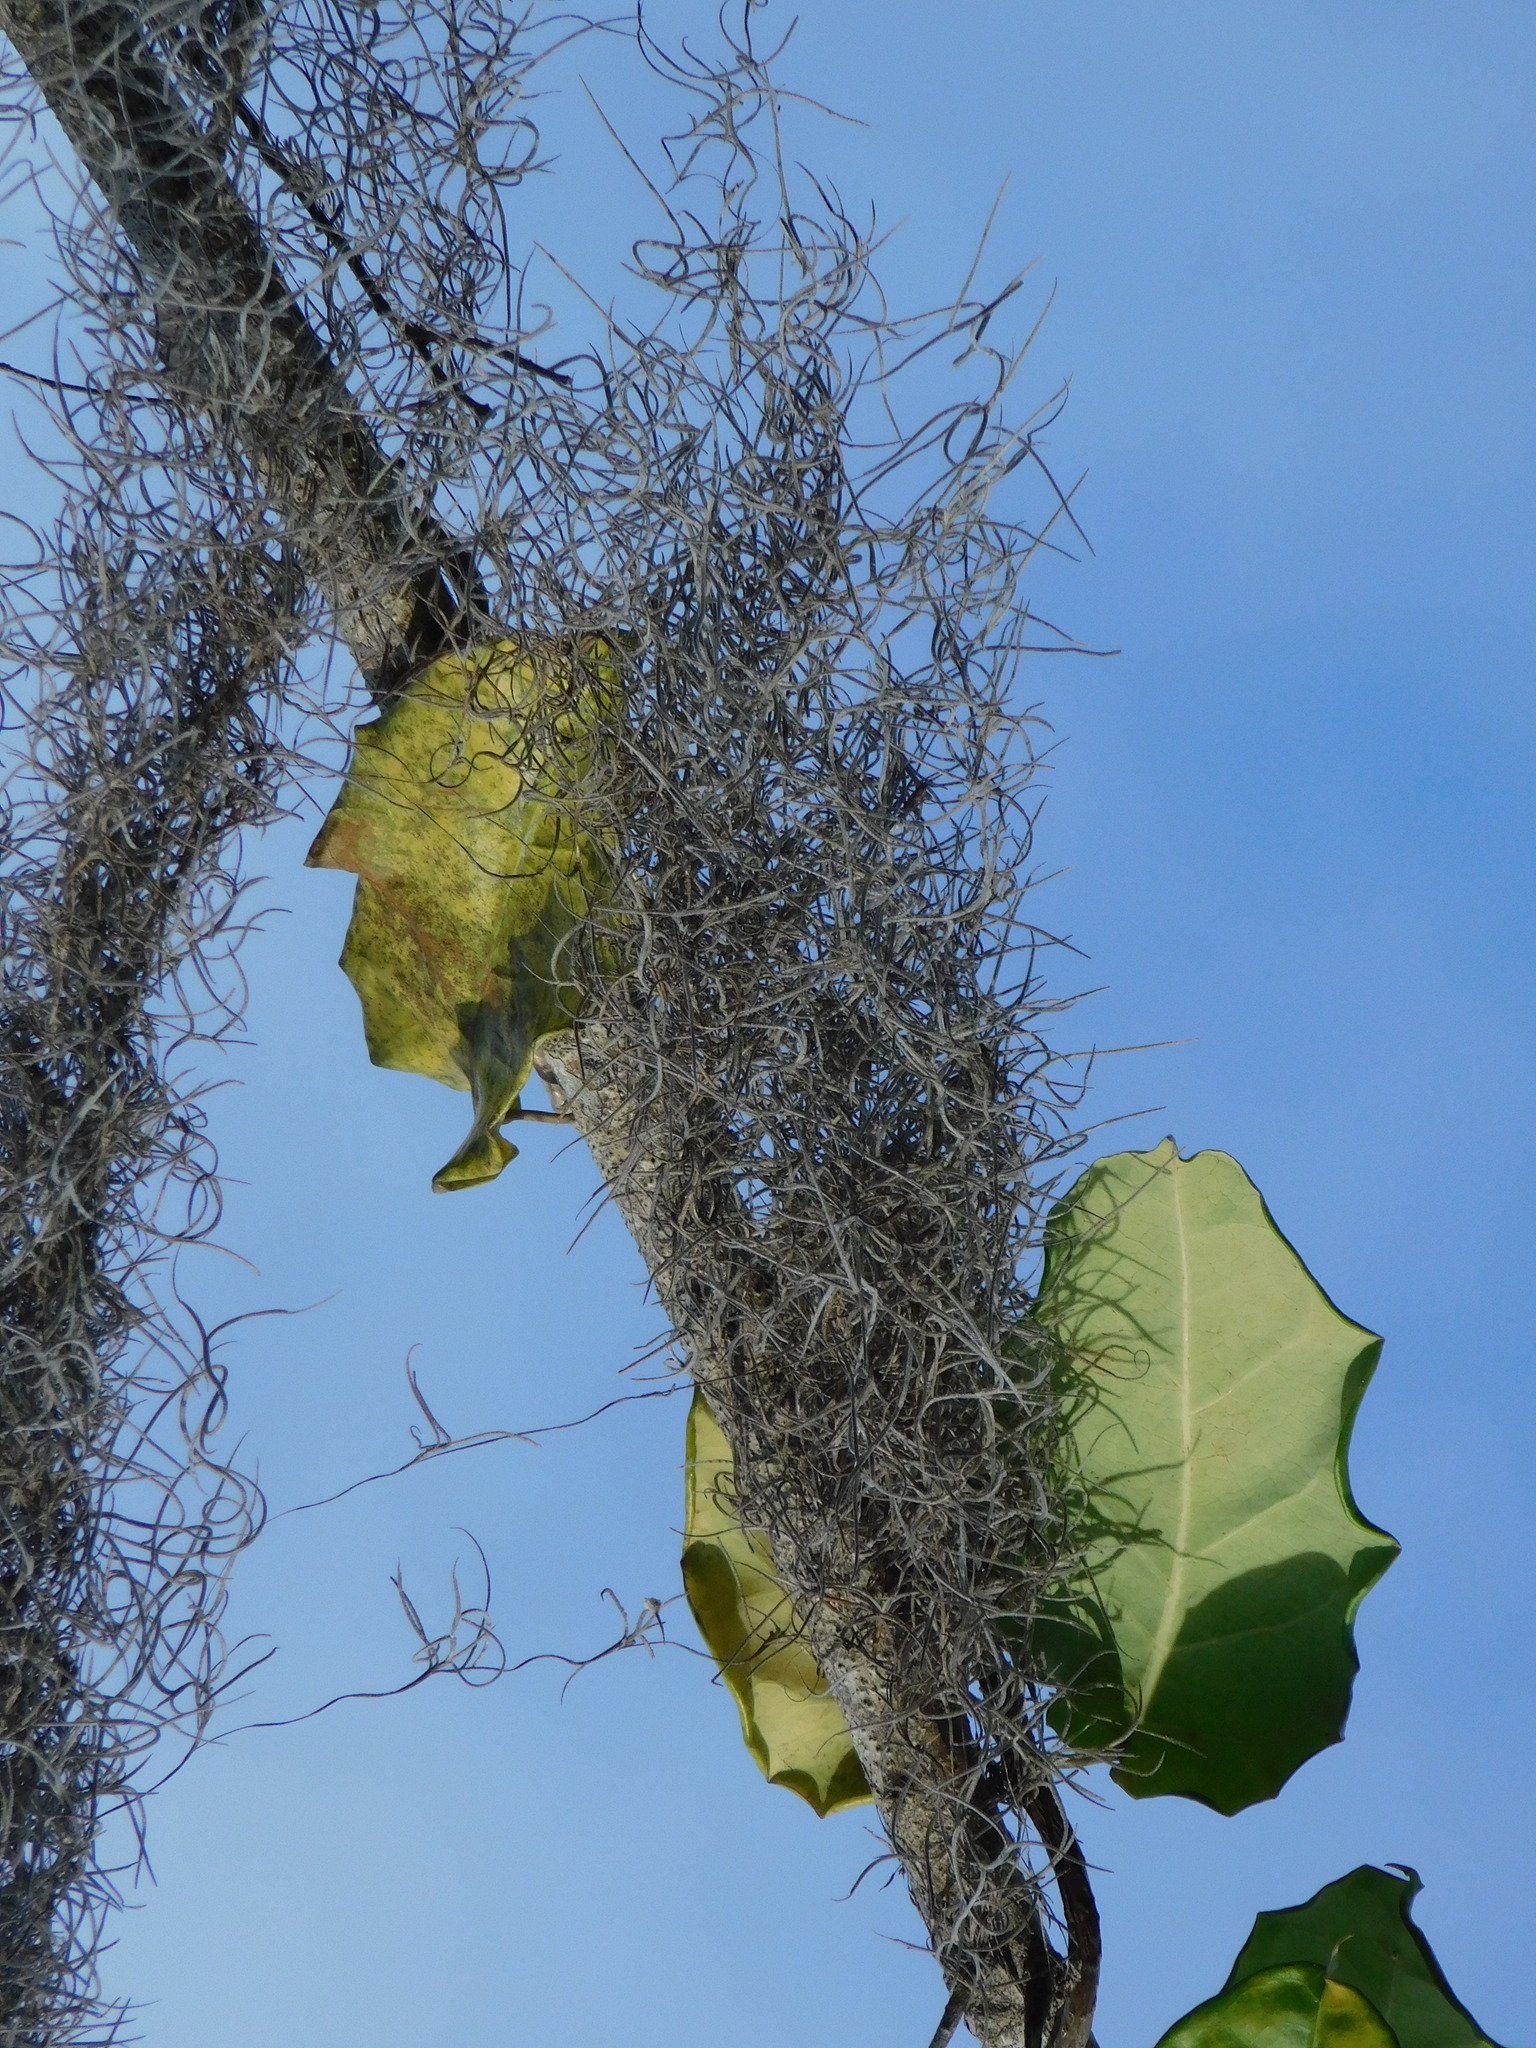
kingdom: Plantae
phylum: Tracheophyta
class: Liliopsida
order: Poales
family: Bromeliaceae
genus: Tillandsia
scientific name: Tillandsia usneoides
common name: Spanish moss
